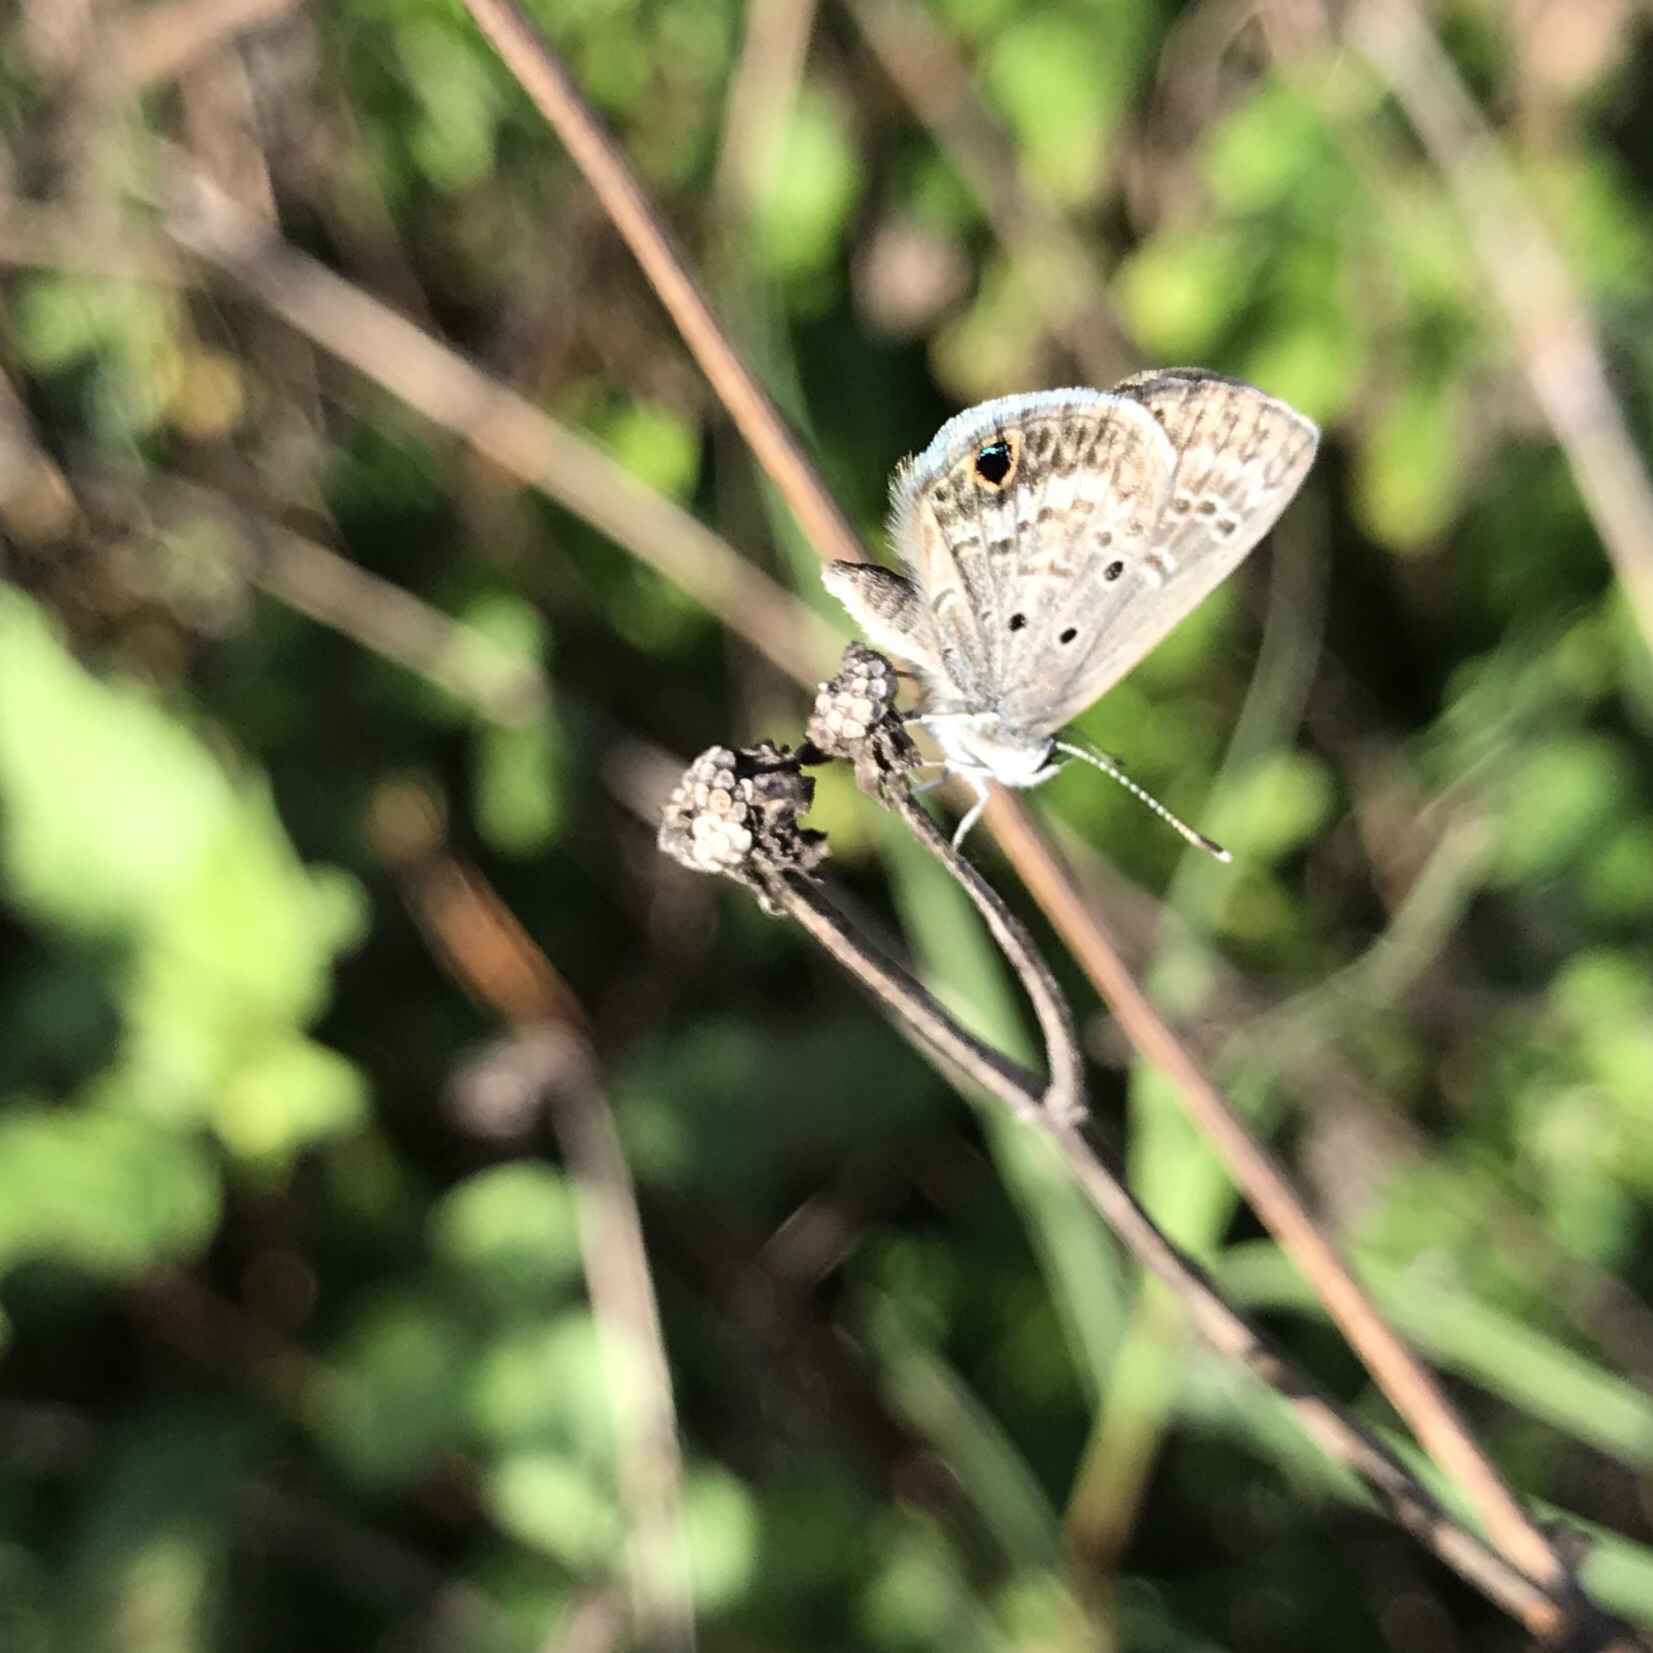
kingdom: Animalia
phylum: Arthropoda
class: Insecta
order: Lepidoptera
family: Lycaenidae
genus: Hemiargus
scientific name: Hemiargus ceraunus
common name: Ceraunus blue
